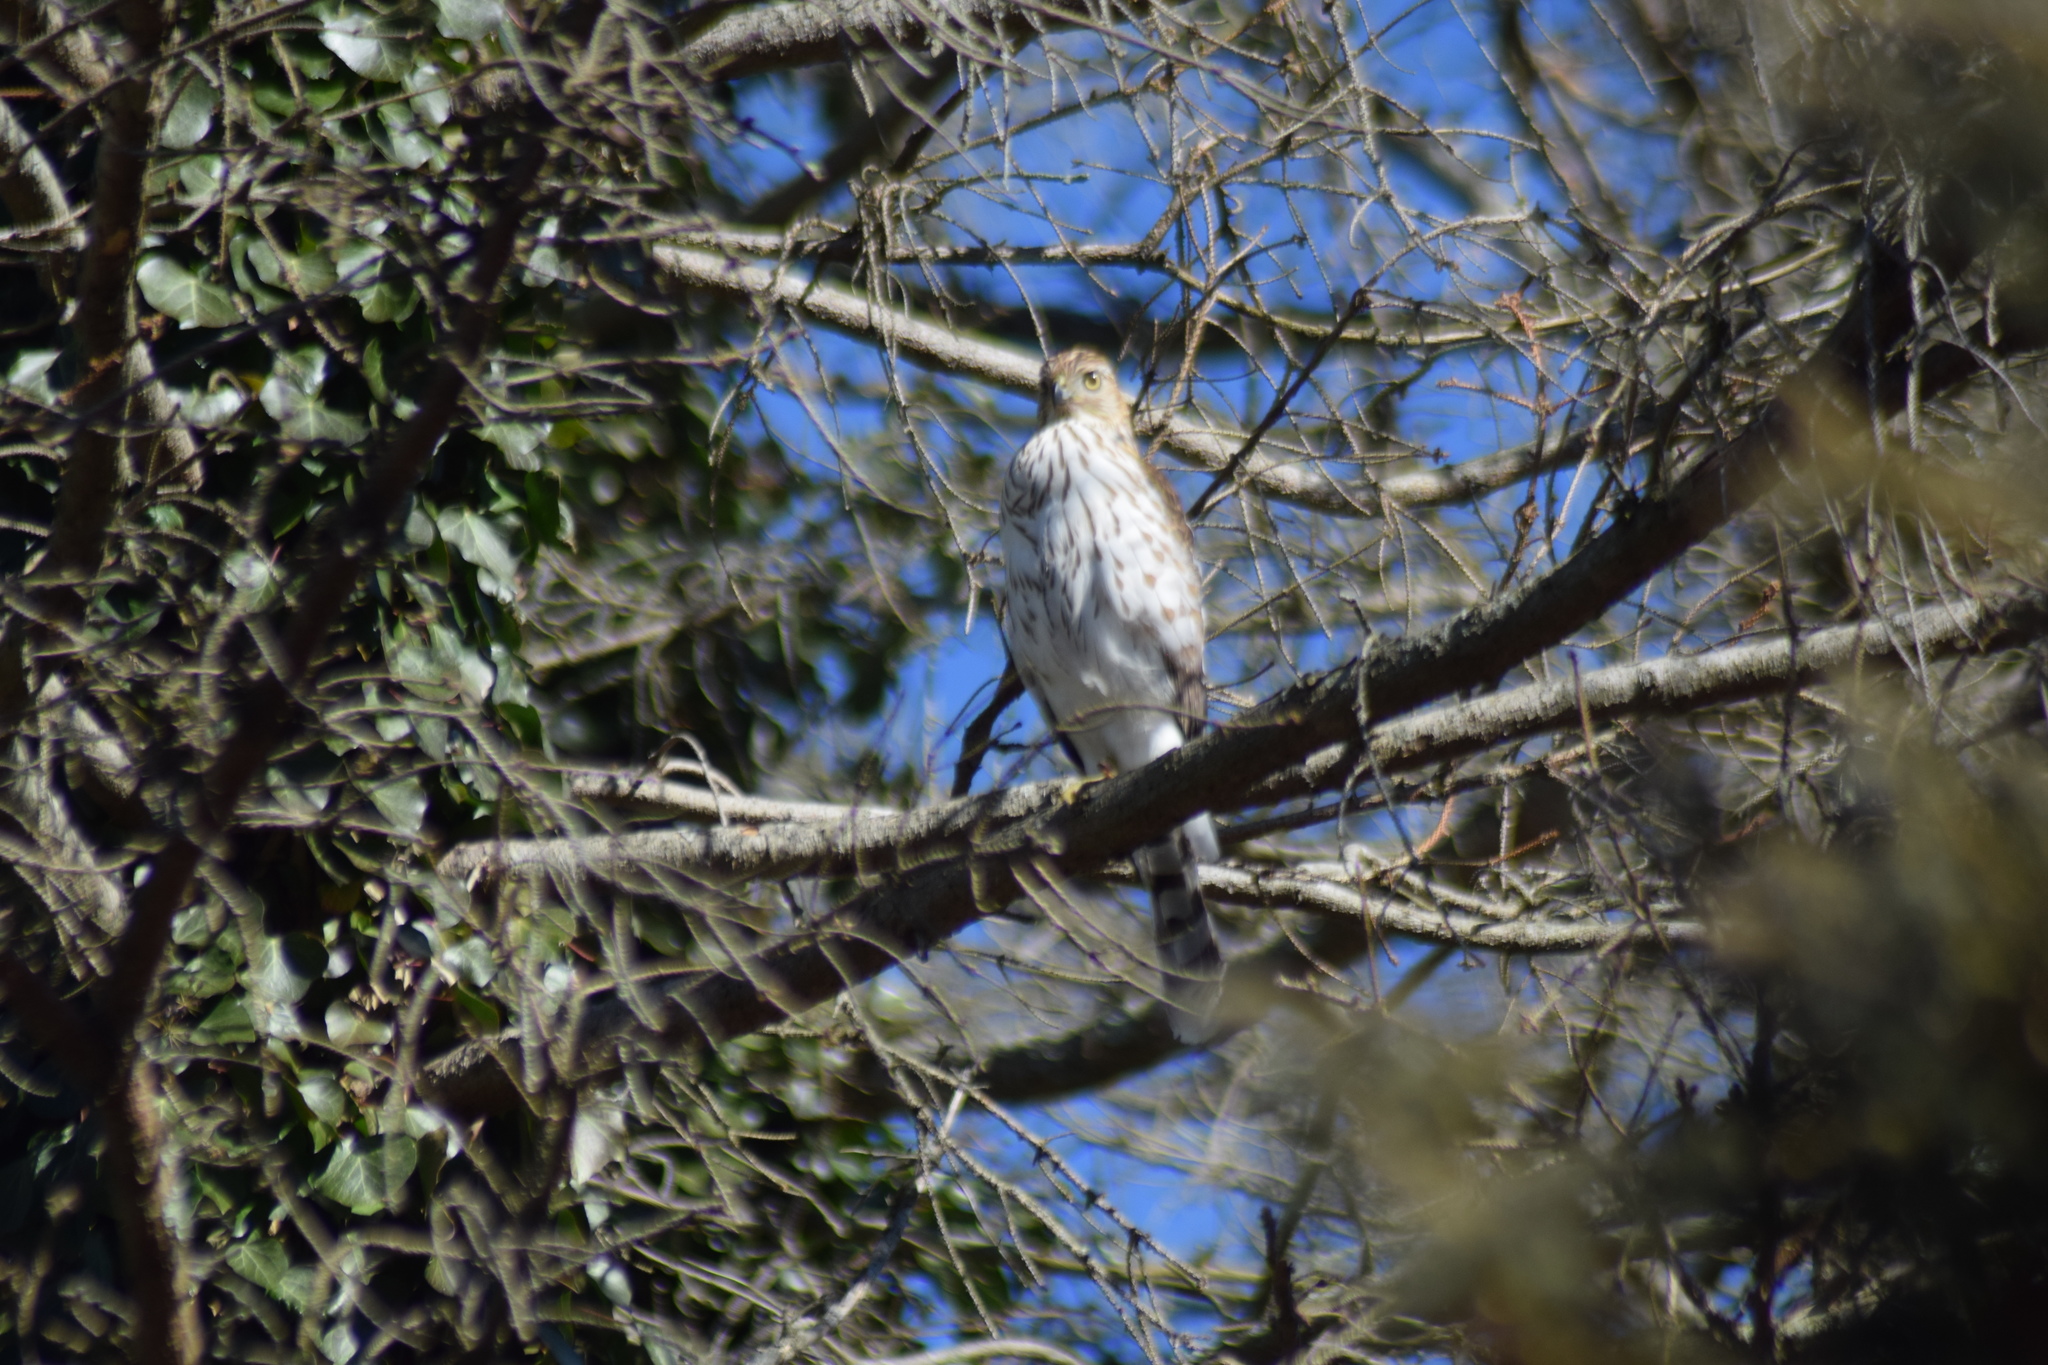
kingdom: Animalia
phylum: Chordata
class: Aves
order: Accipitriformes
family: Accipitridae
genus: Accipiter
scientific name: Accipiter cooperii
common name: Cooper's hawk
